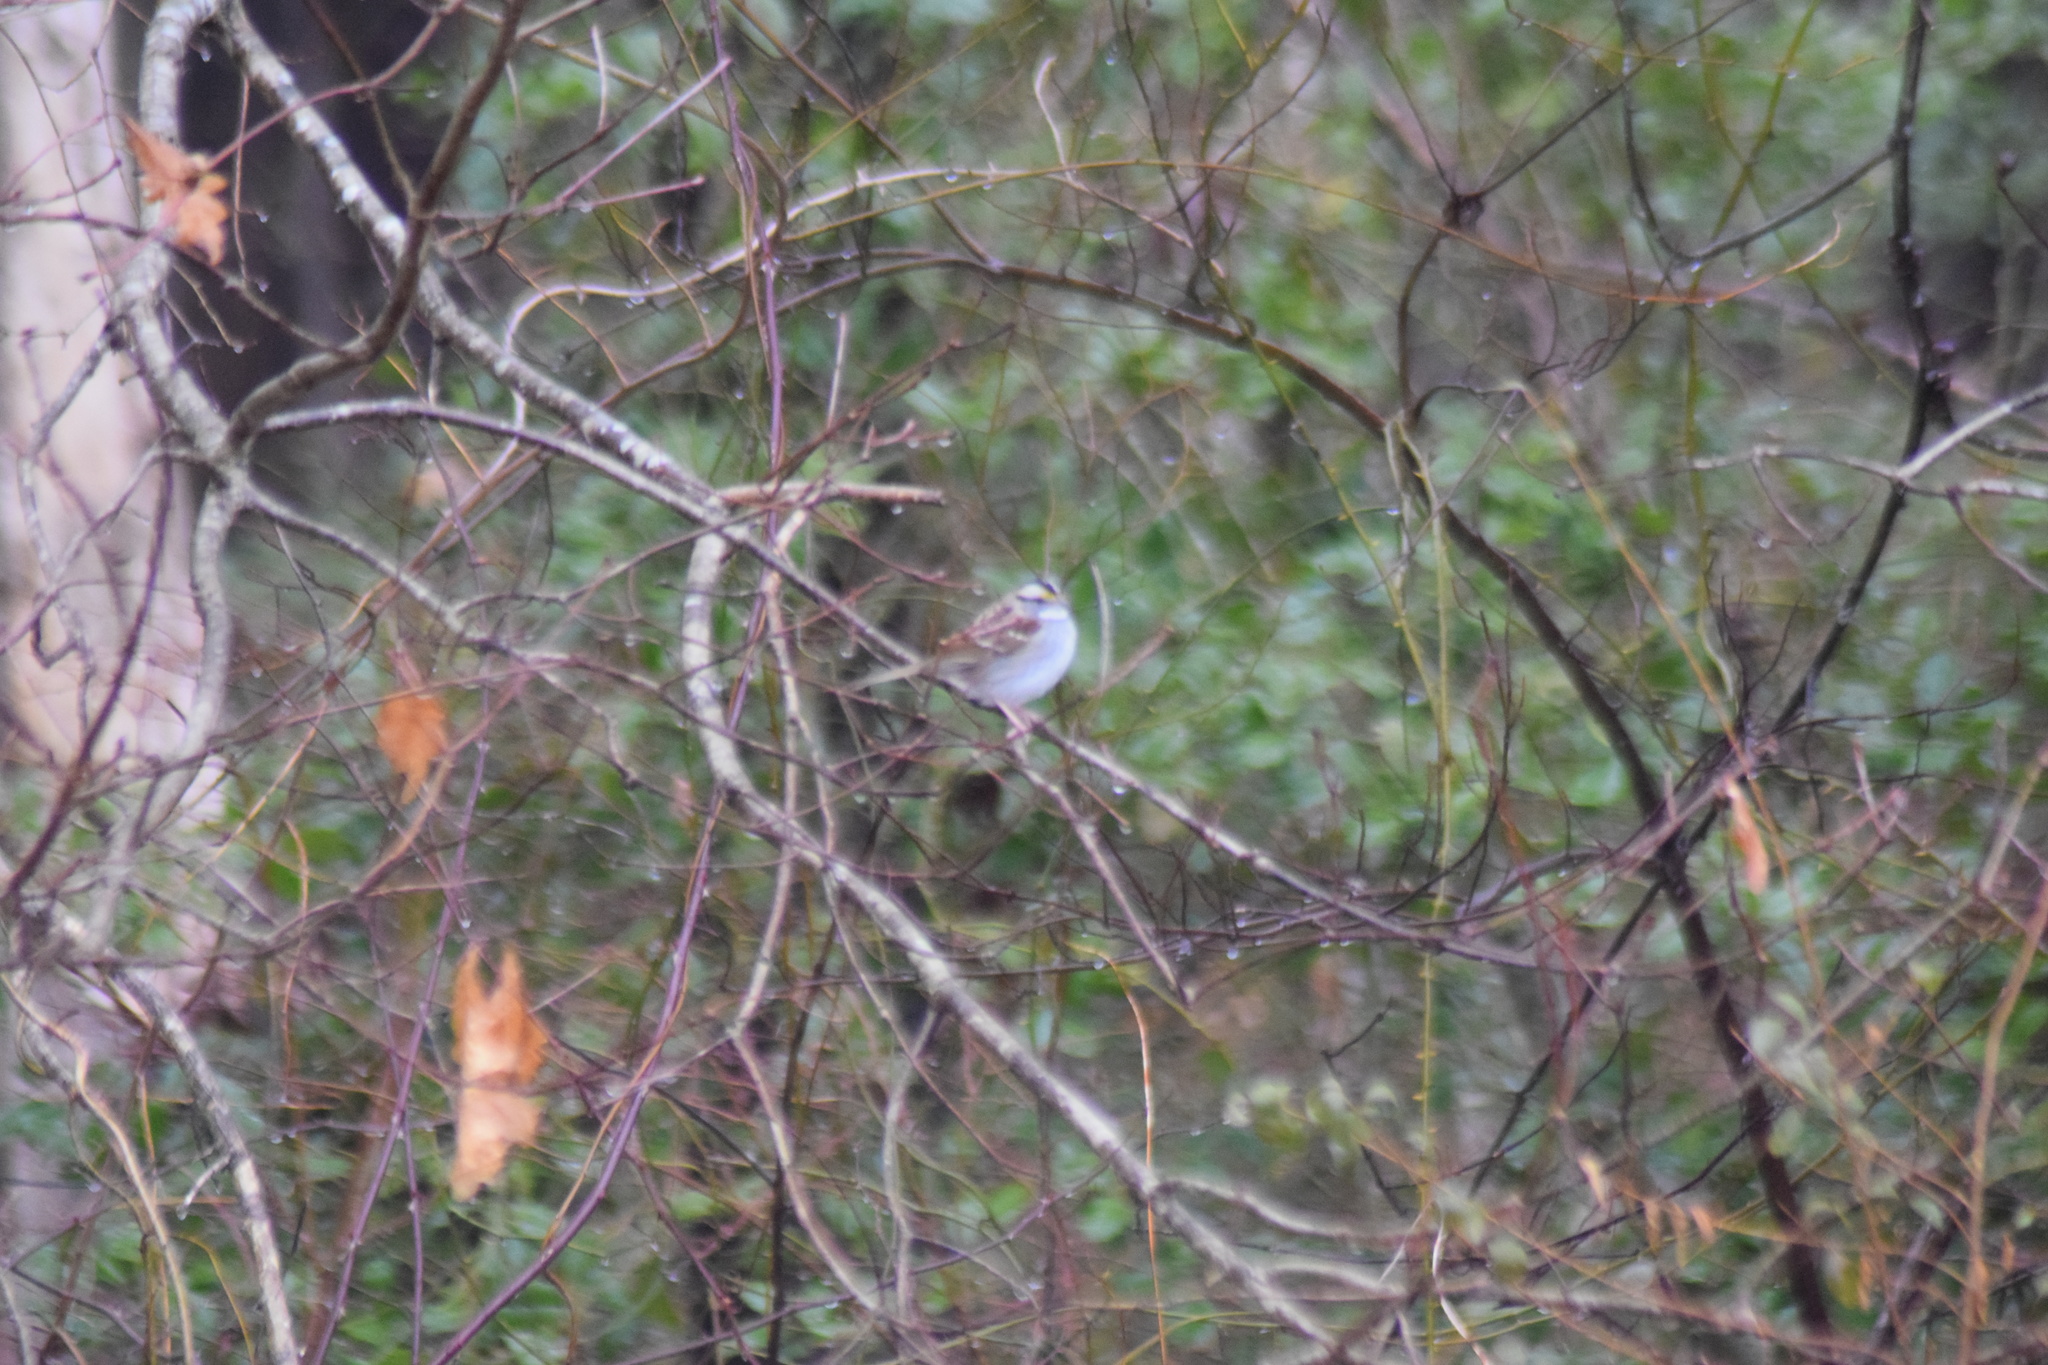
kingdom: Animalia
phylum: Chordata
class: Aves
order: Passeriformes
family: Passerellidae
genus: Zonotrichia
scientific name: Zonotrichia albicollis
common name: White-throated sparrow
